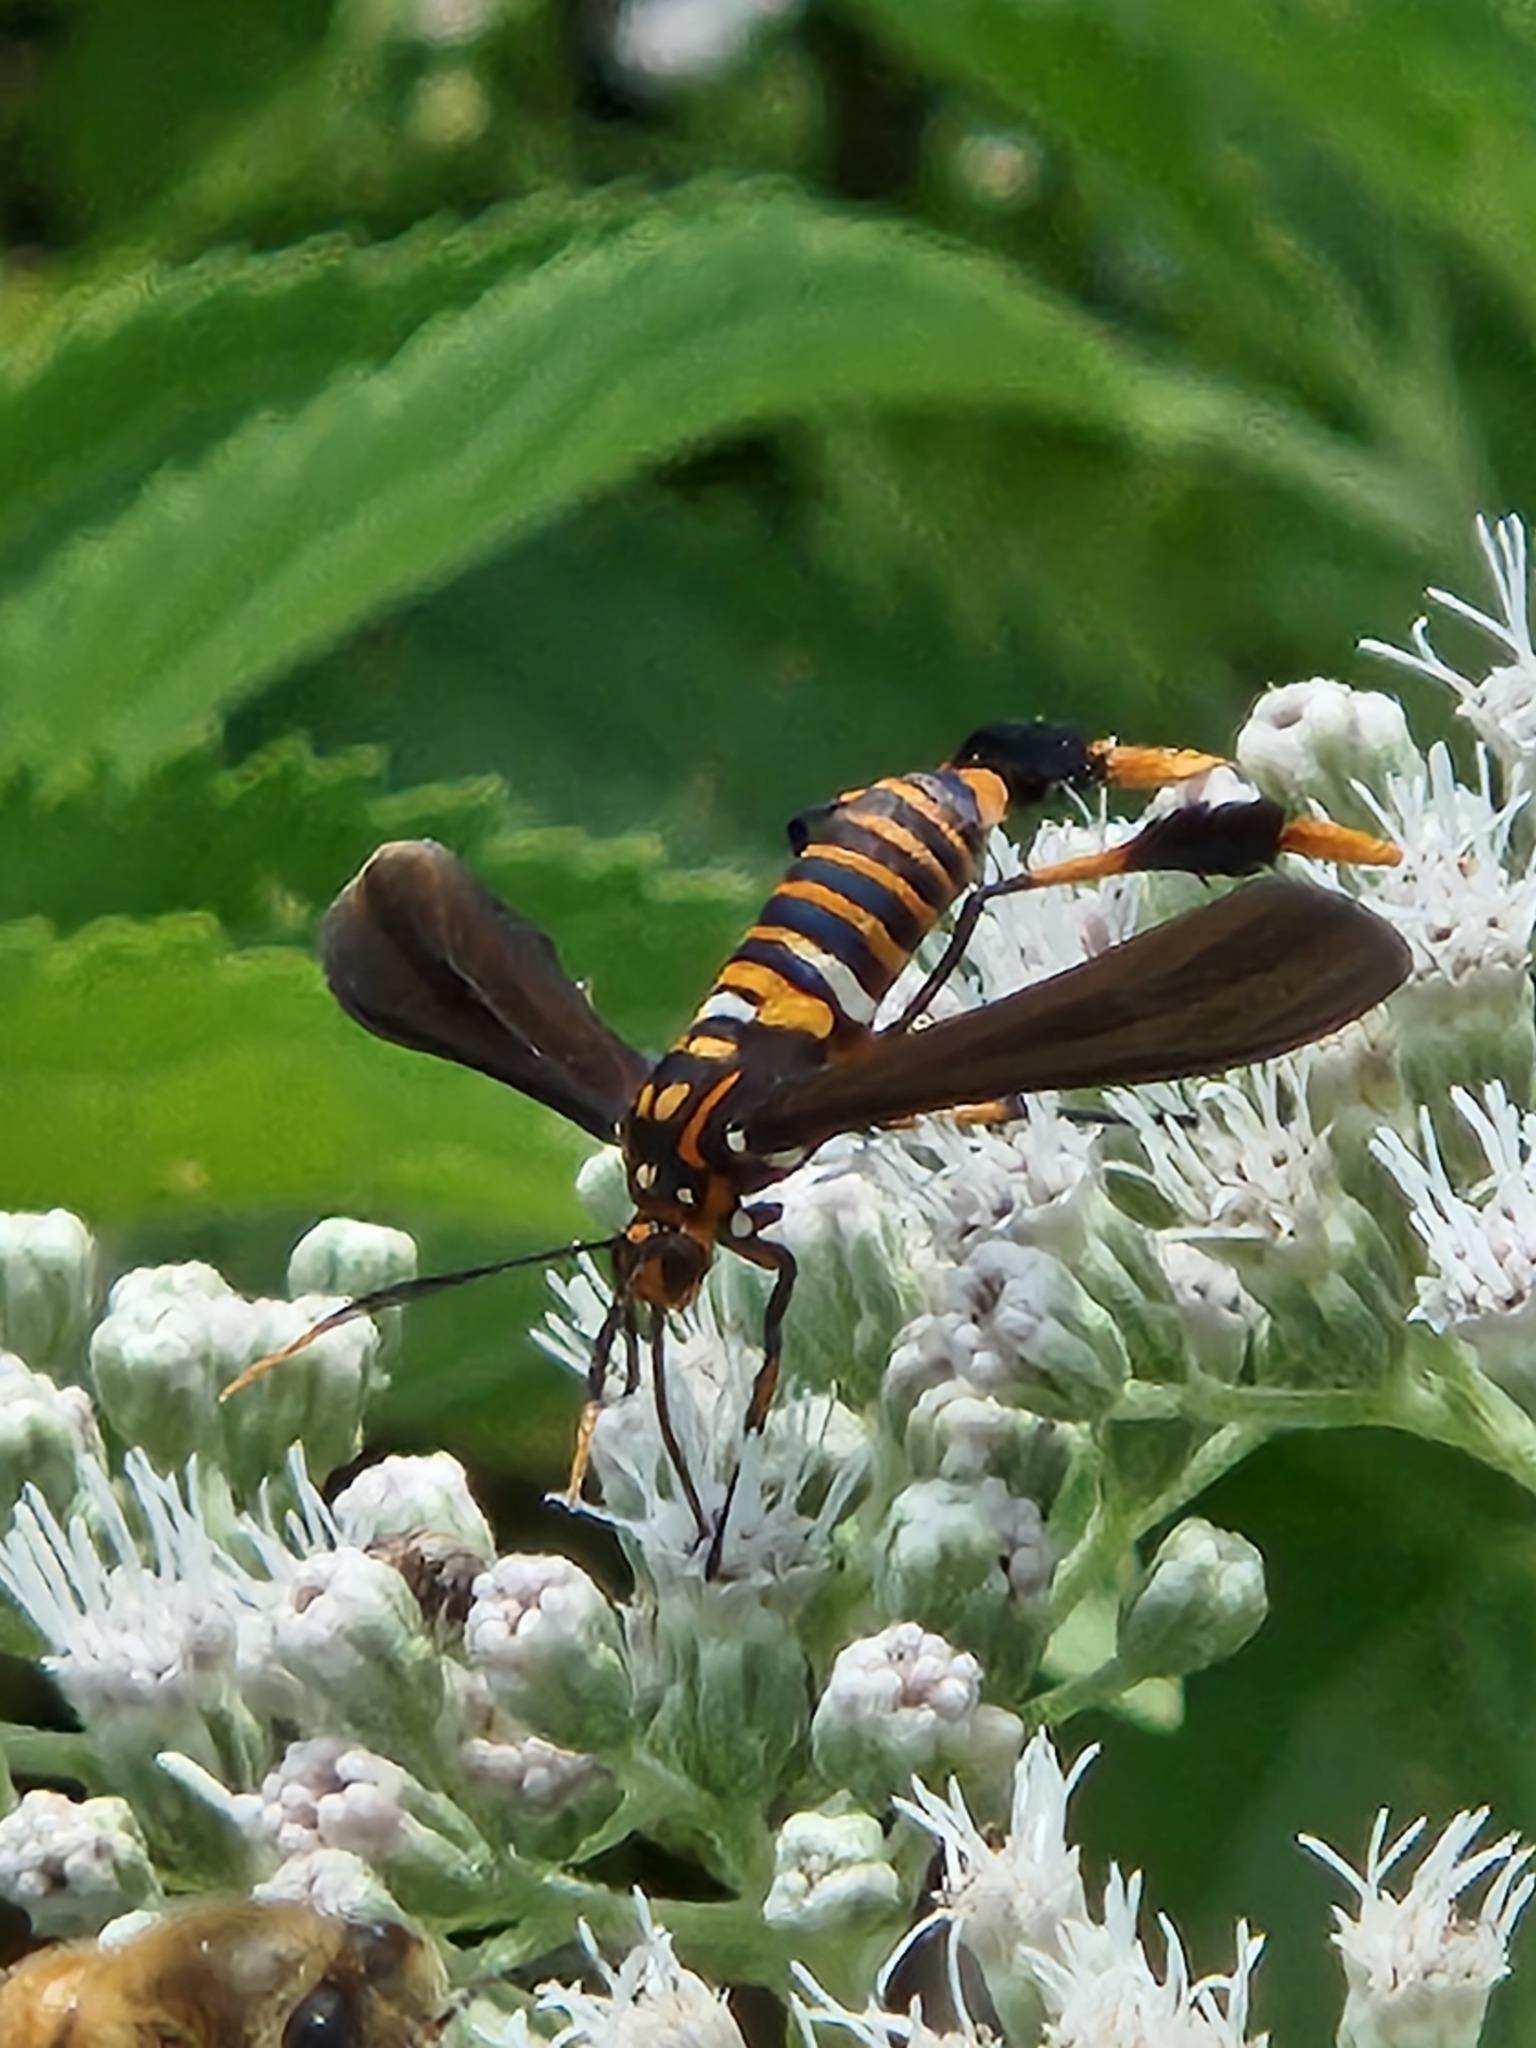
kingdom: Animalia
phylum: Arthropoda
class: Insecta
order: Lepidoptera
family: Erebidae
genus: Horama
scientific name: Horama panthalon
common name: Texas wasp moth
